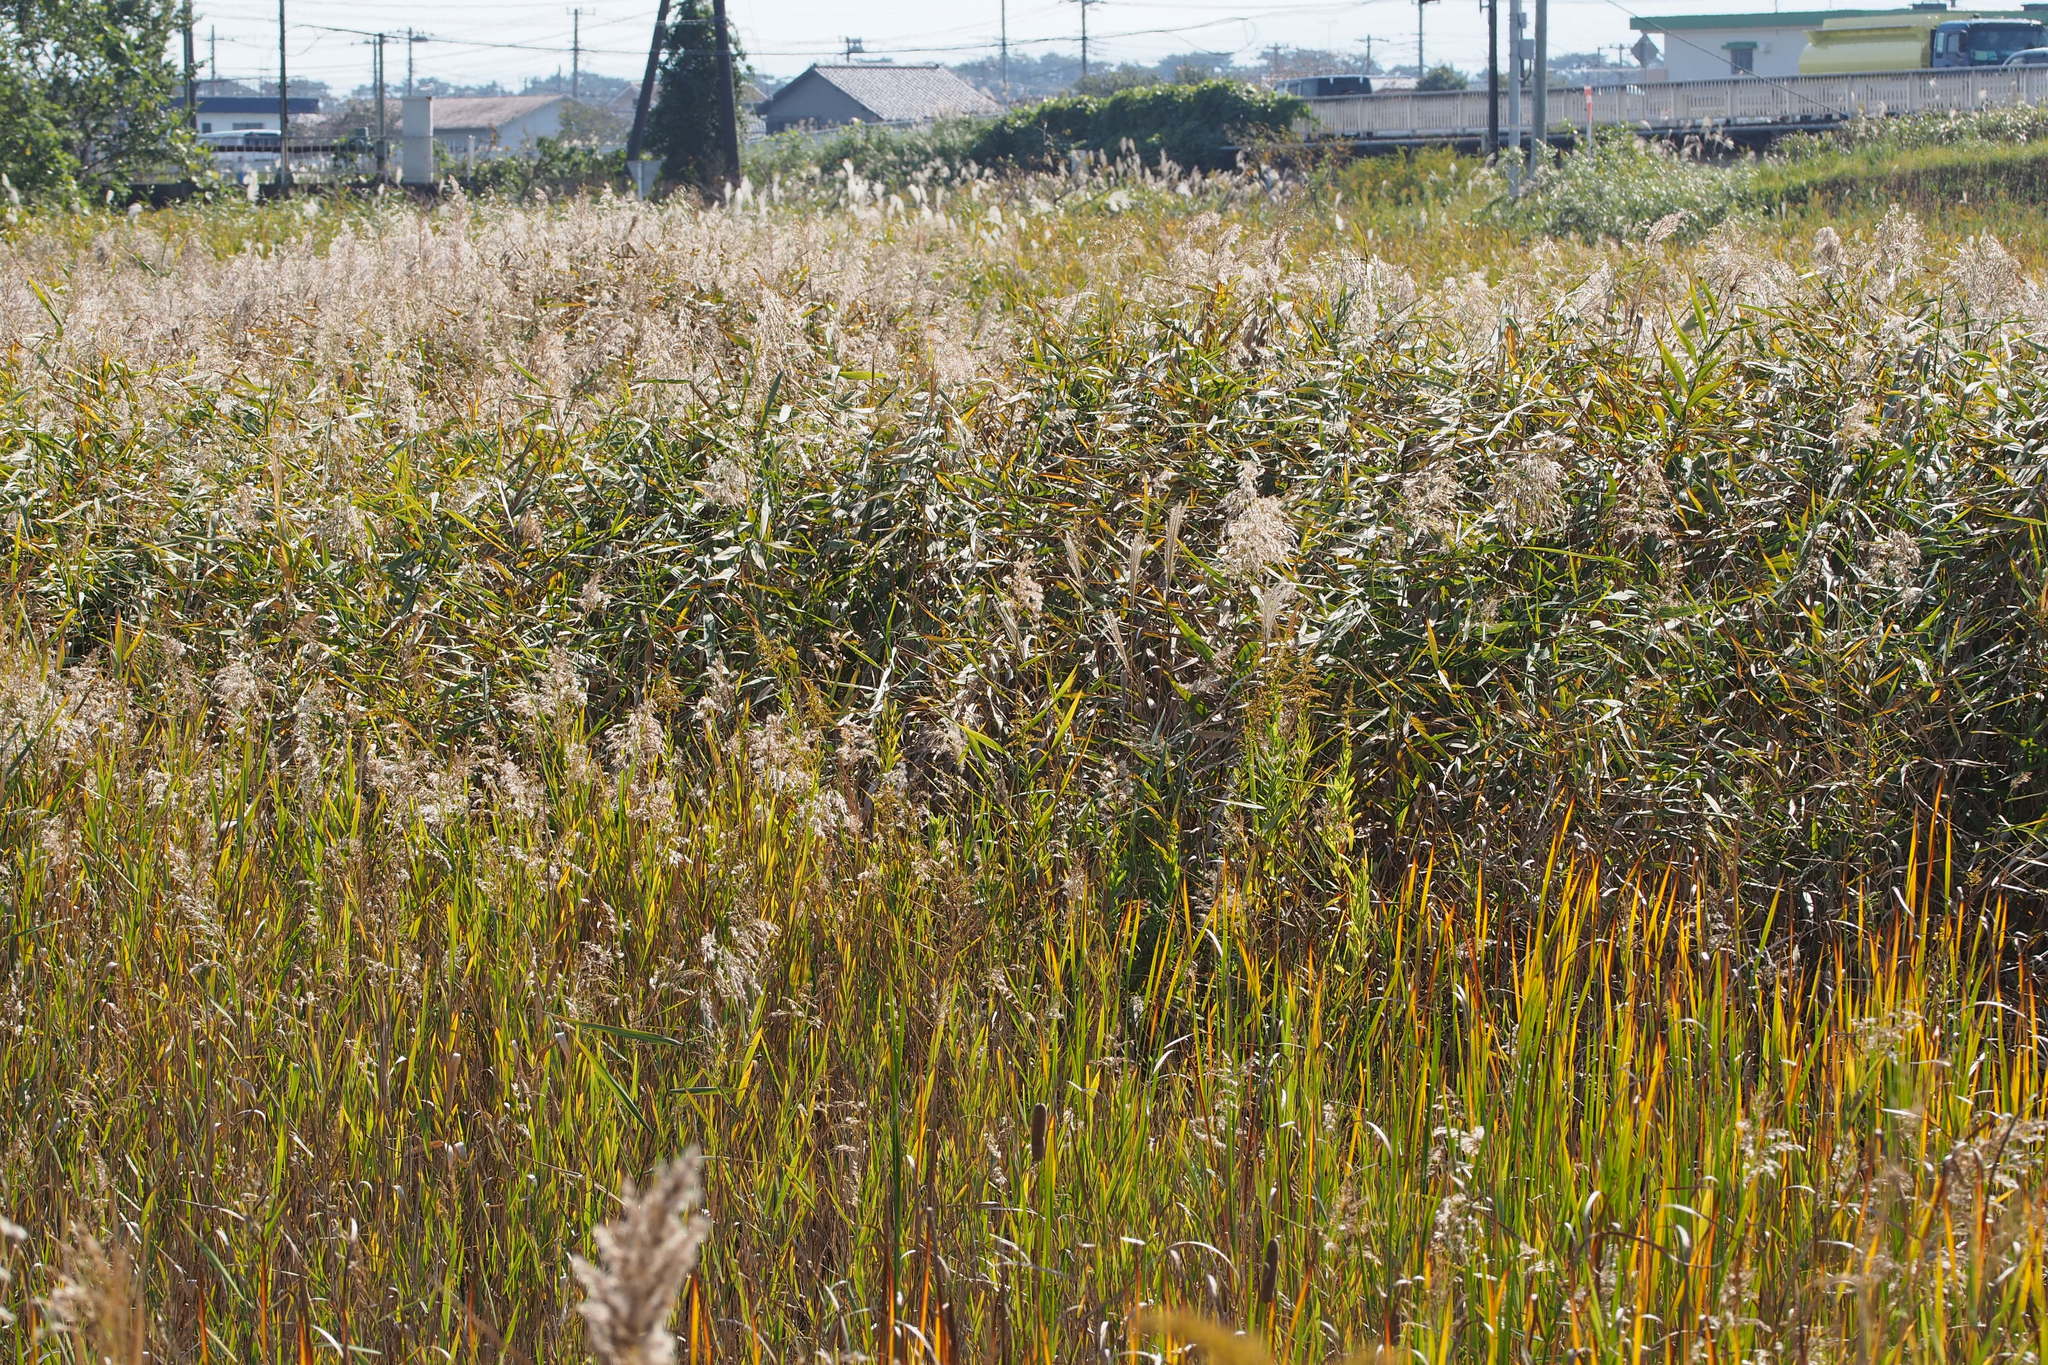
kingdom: Plantae
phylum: Tracheophyta
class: Liliopsida
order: Poales
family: Poaceae
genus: Phragmites
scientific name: Phragmites australis
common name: Common reed
